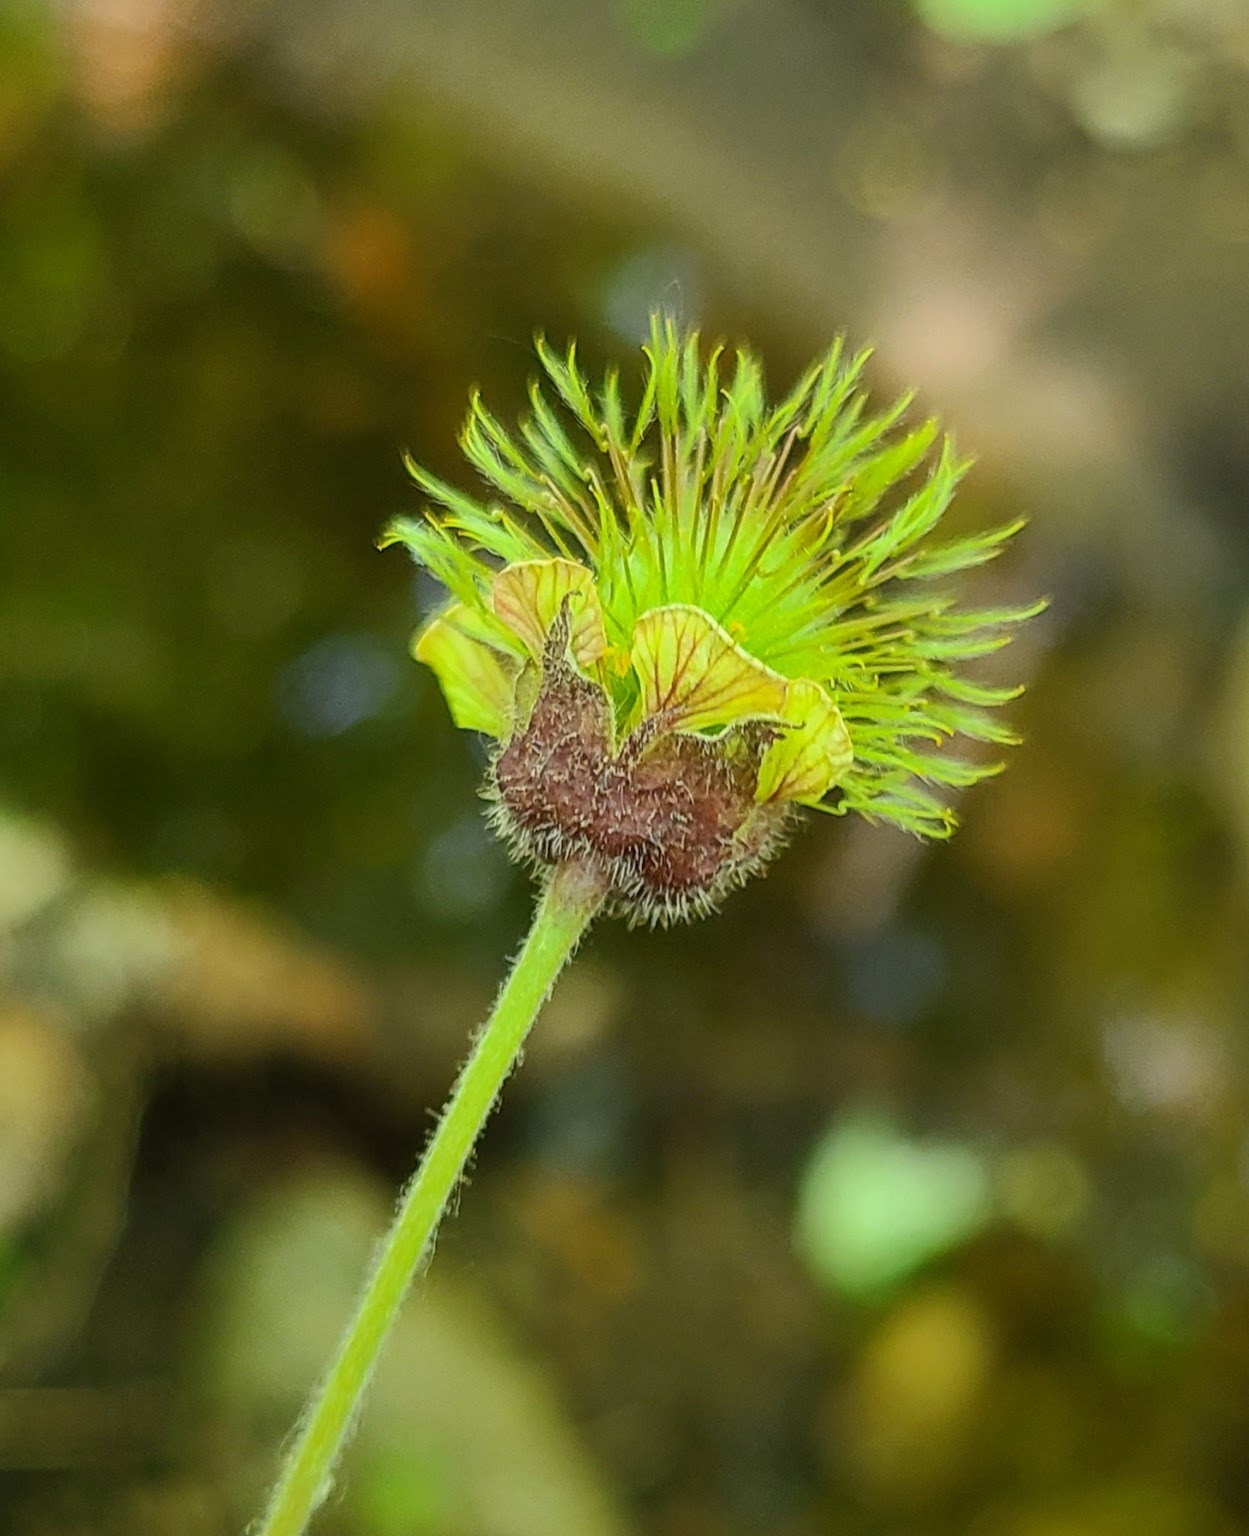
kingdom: Plantae
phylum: Tracheophyta
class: Magnoliopsida
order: Rosales
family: Rosaceae
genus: Geum
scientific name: Geum rivale
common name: Water avens
